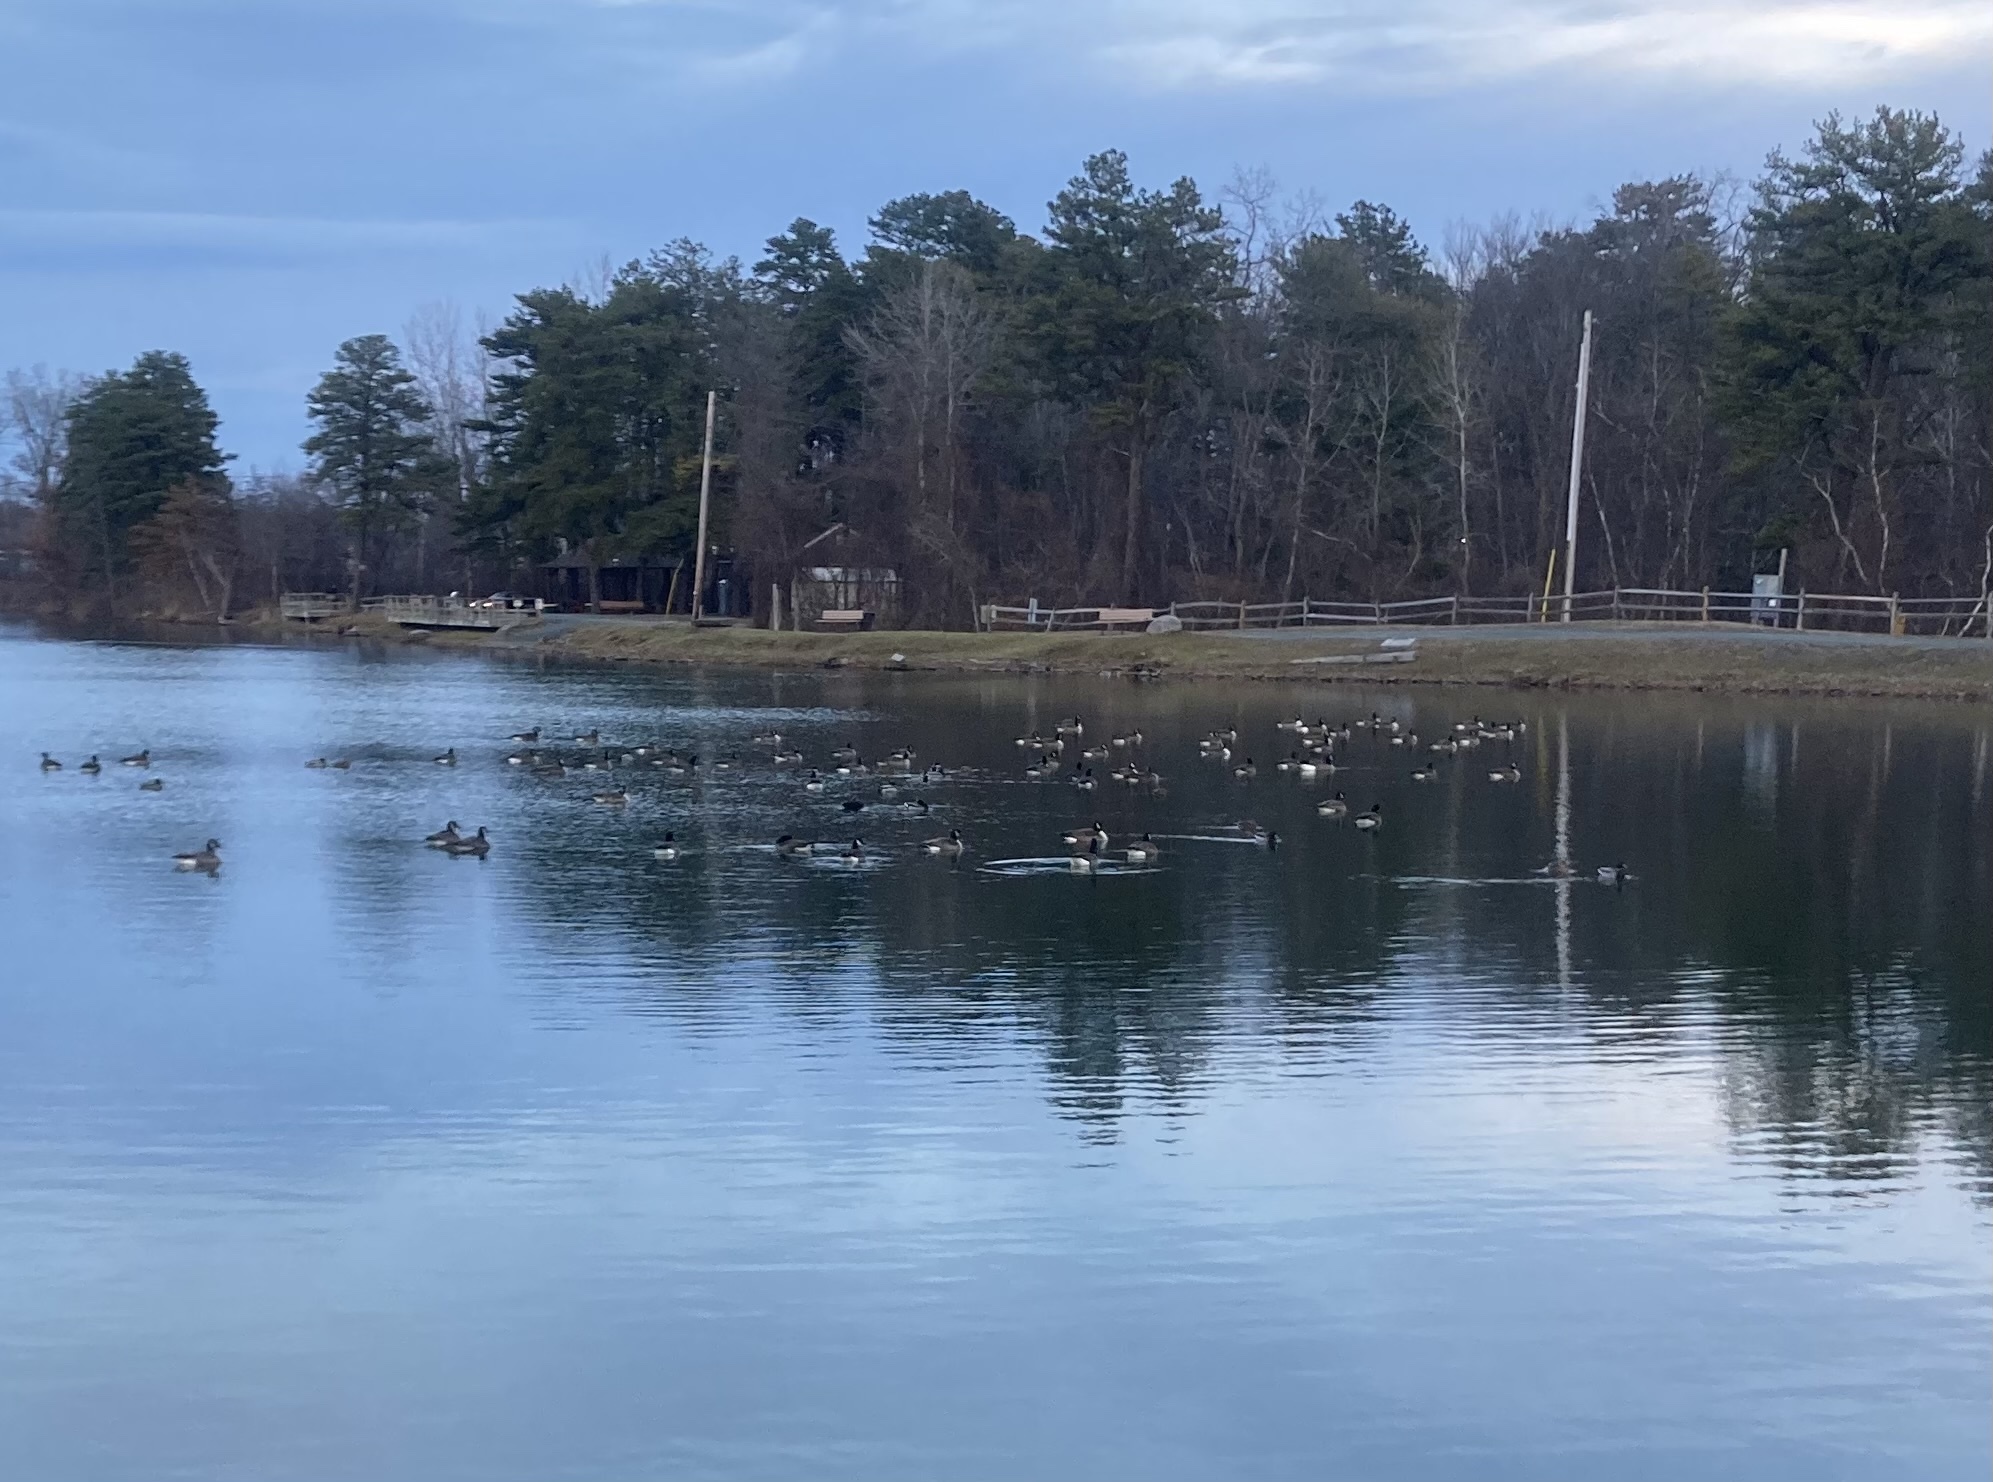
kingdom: Animalia
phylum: Chordata
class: Aves
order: Anseriformes
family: Anatidae
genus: Anas
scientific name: Anas platyrhynchos
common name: Mallard
